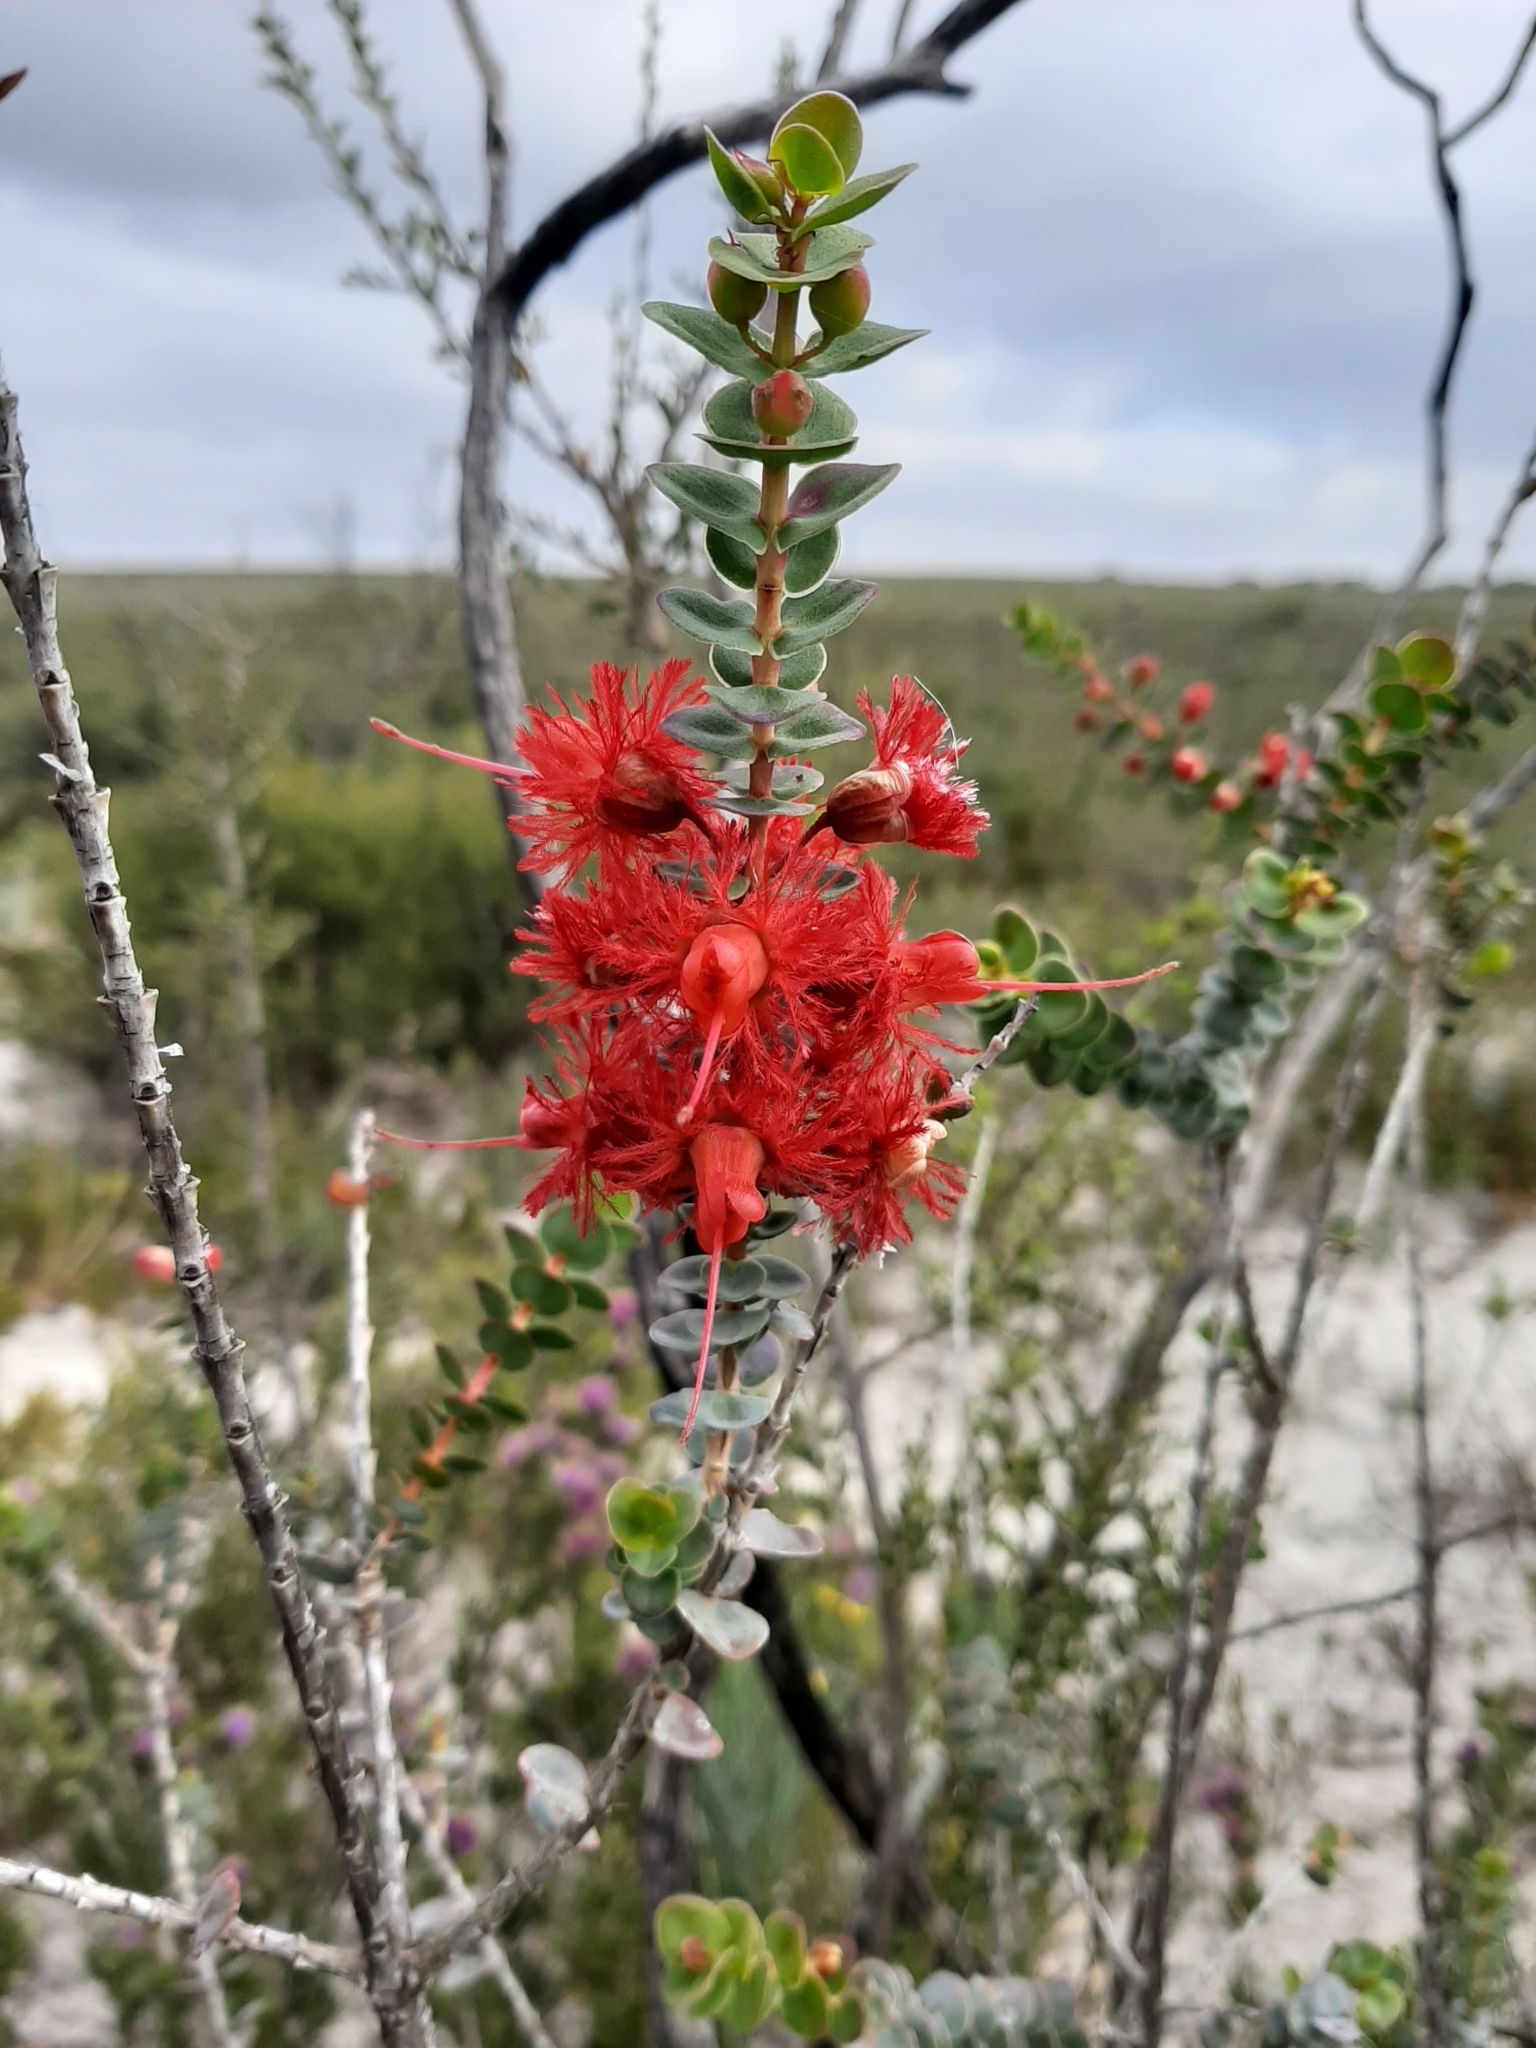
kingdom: Plantae
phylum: Tracheophyta
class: Magnoliopsida
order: Myrtales
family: Myrtaceae
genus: Verticordia
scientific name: Verticordia grandis
